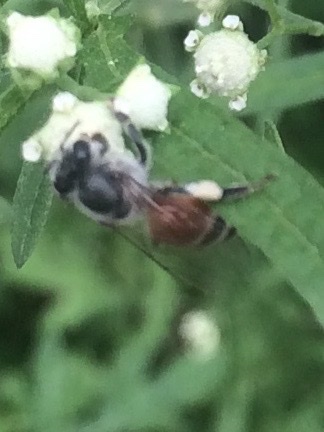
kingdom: Animalia
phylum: Arthropoda
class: Insecta
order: Hymenoptera
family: Apidae
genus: Apis
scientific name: Apis florea
